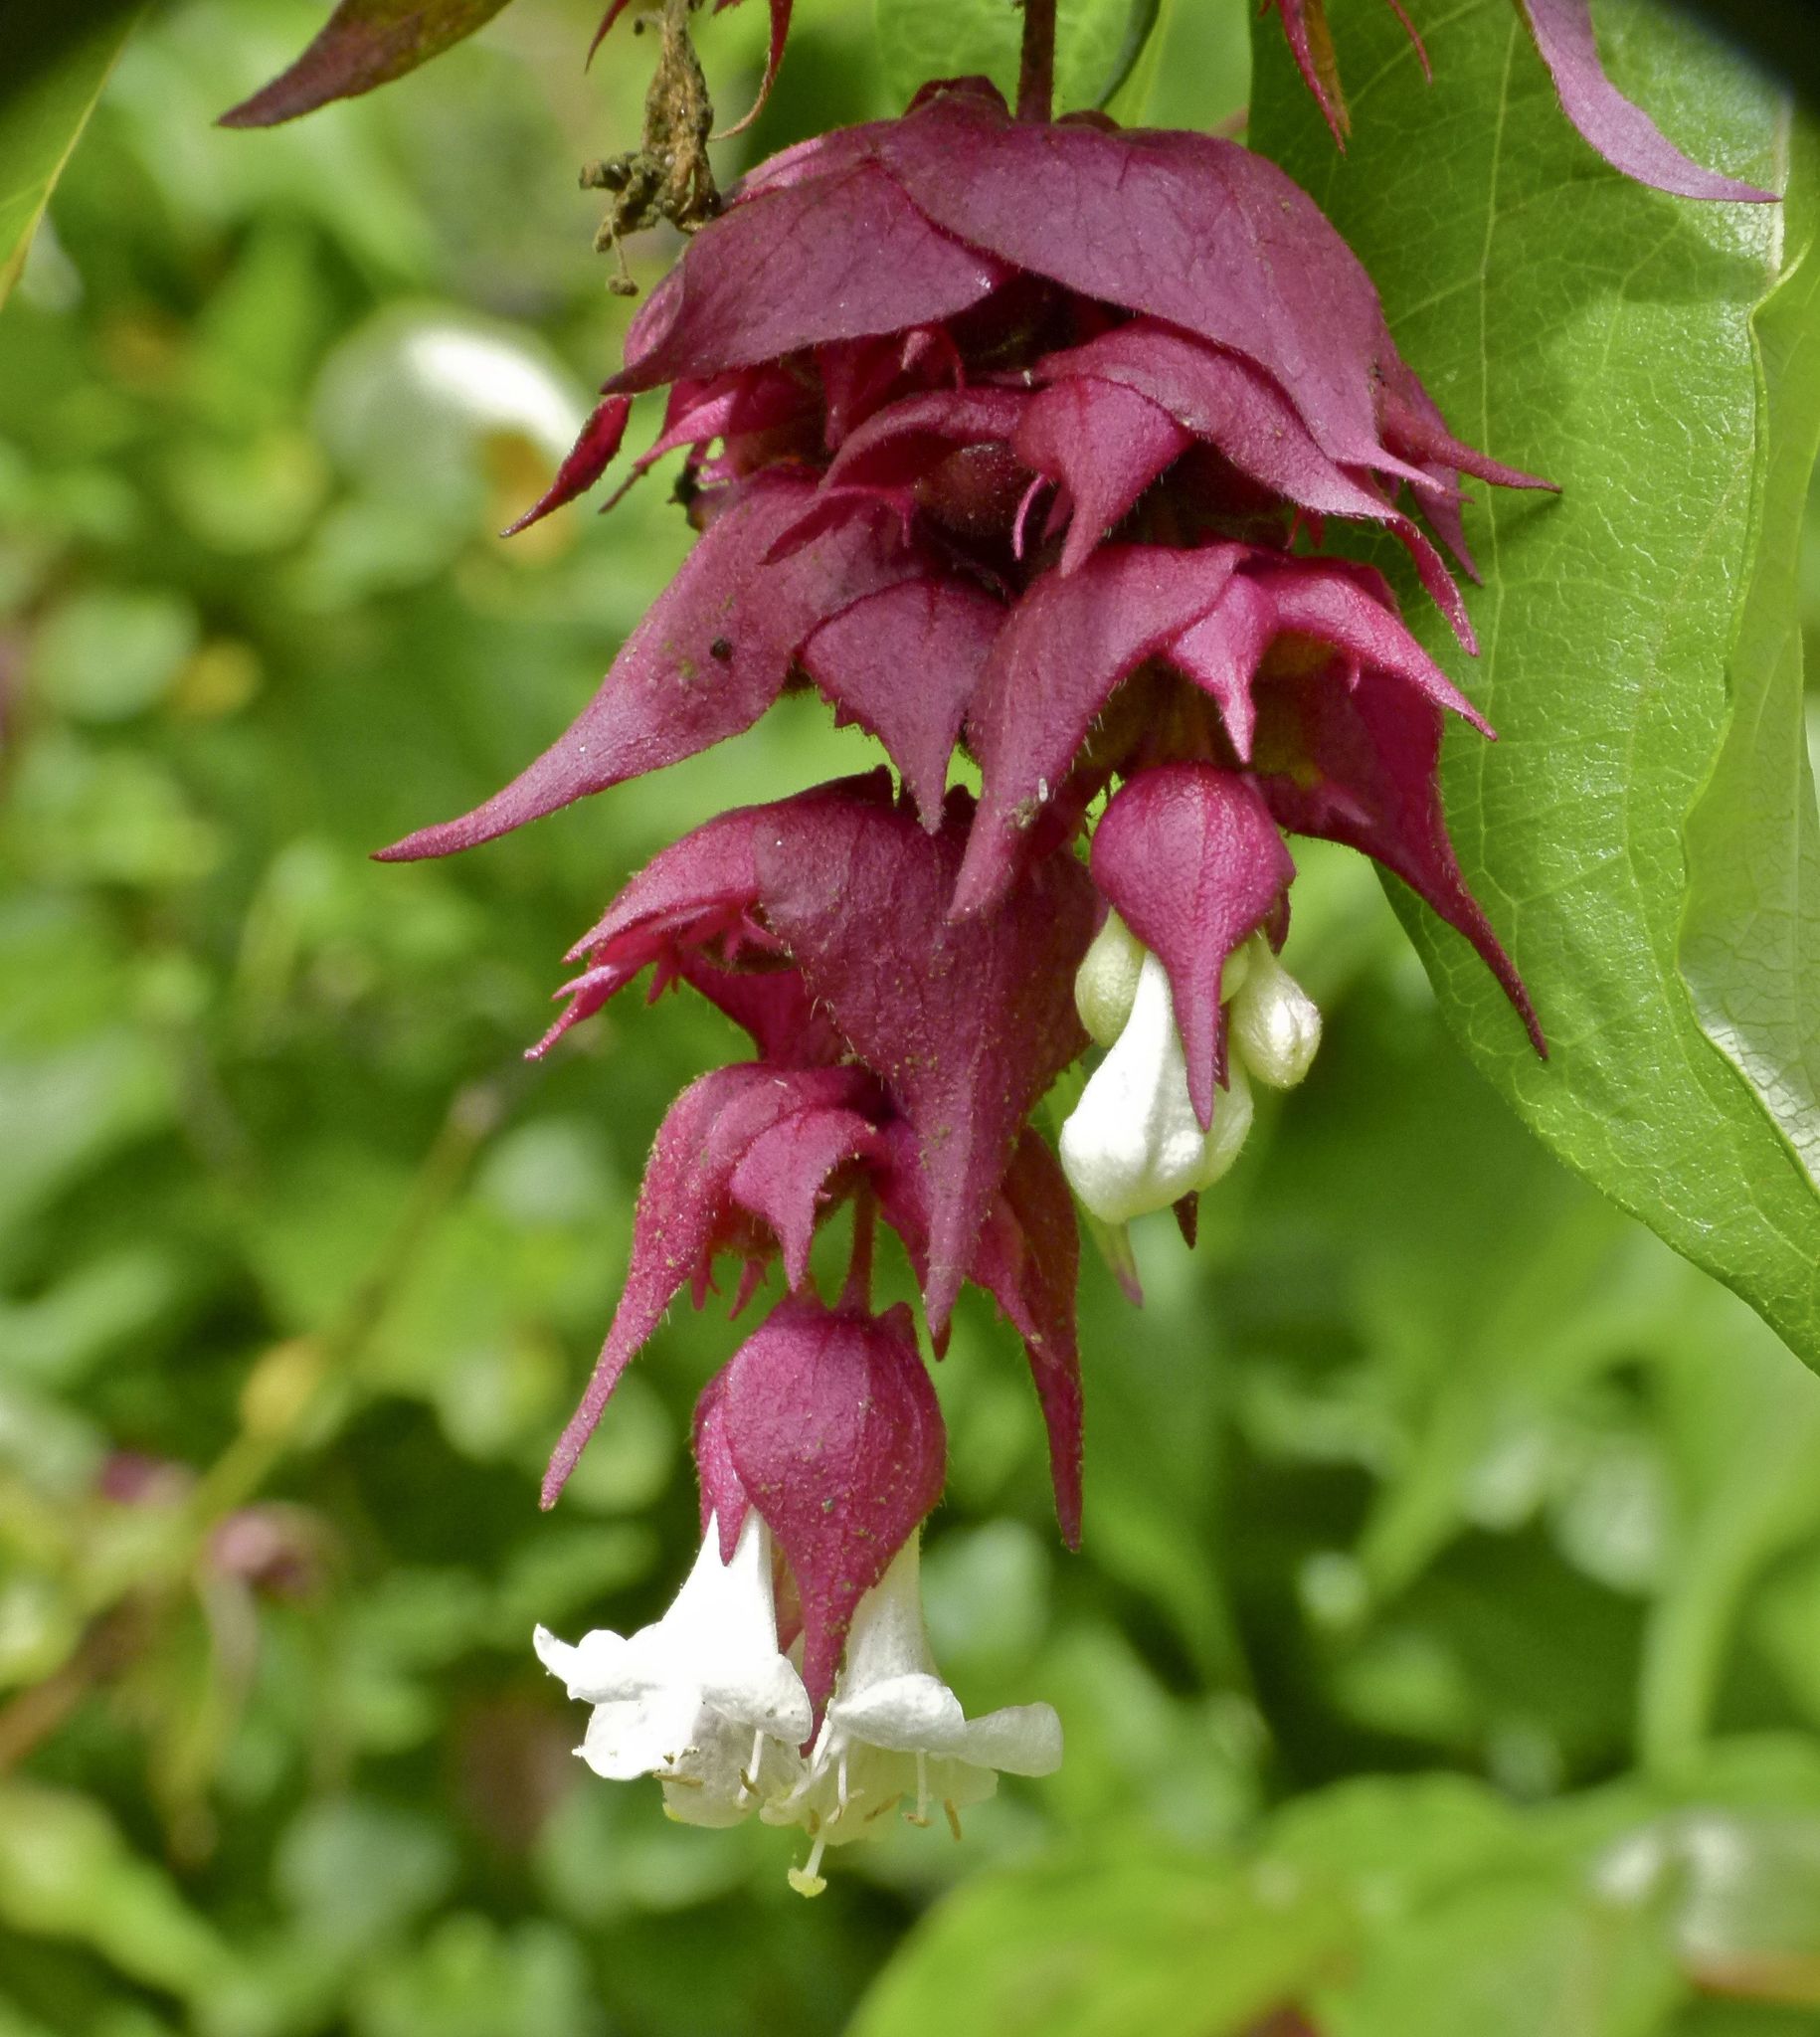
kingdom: Plantae
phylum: Tracheophyta
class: Magnoliopsida
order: Dipsacales
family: Caprifoliaceae
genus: Leycesteria
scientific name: Leycesteria formosa
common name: Himalayan honeysuckle
